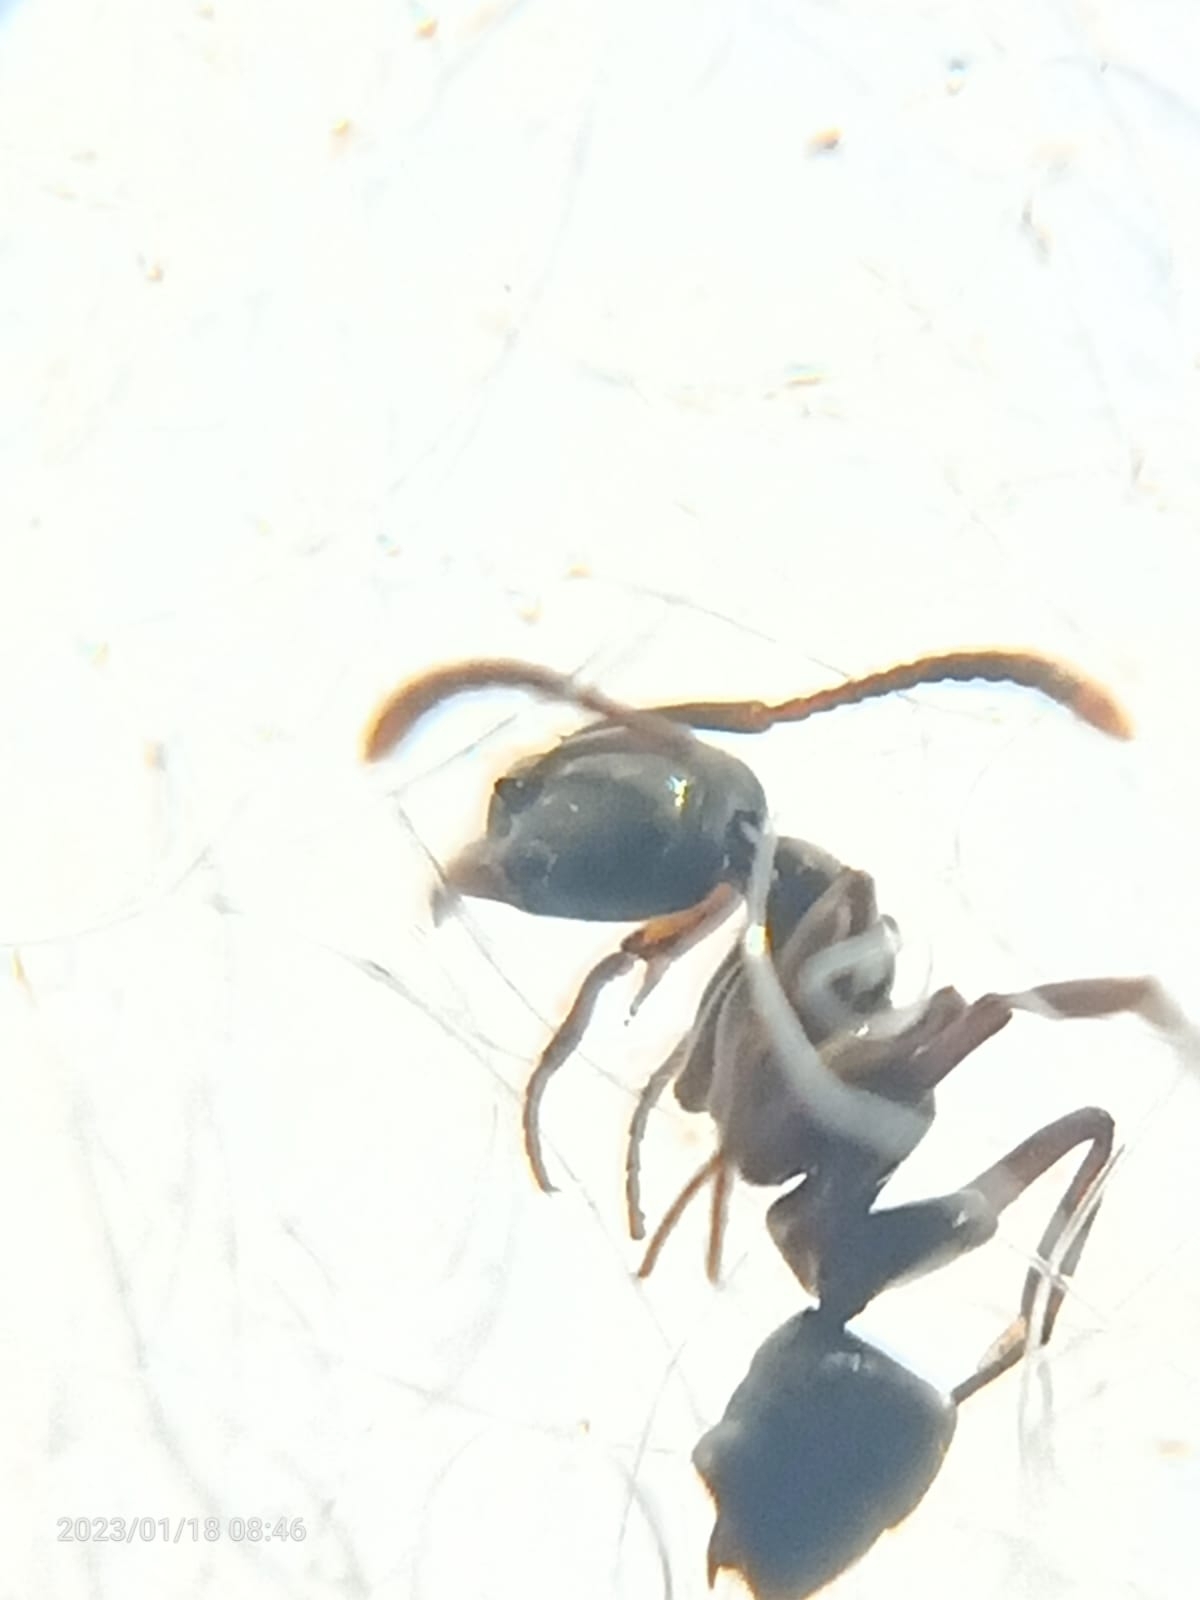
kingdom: Animalia
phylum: Arthropoda
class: Insecta
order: Hymenoptera
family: Formicidae
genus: Brachyponera
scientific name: Brachyponera luteipes
